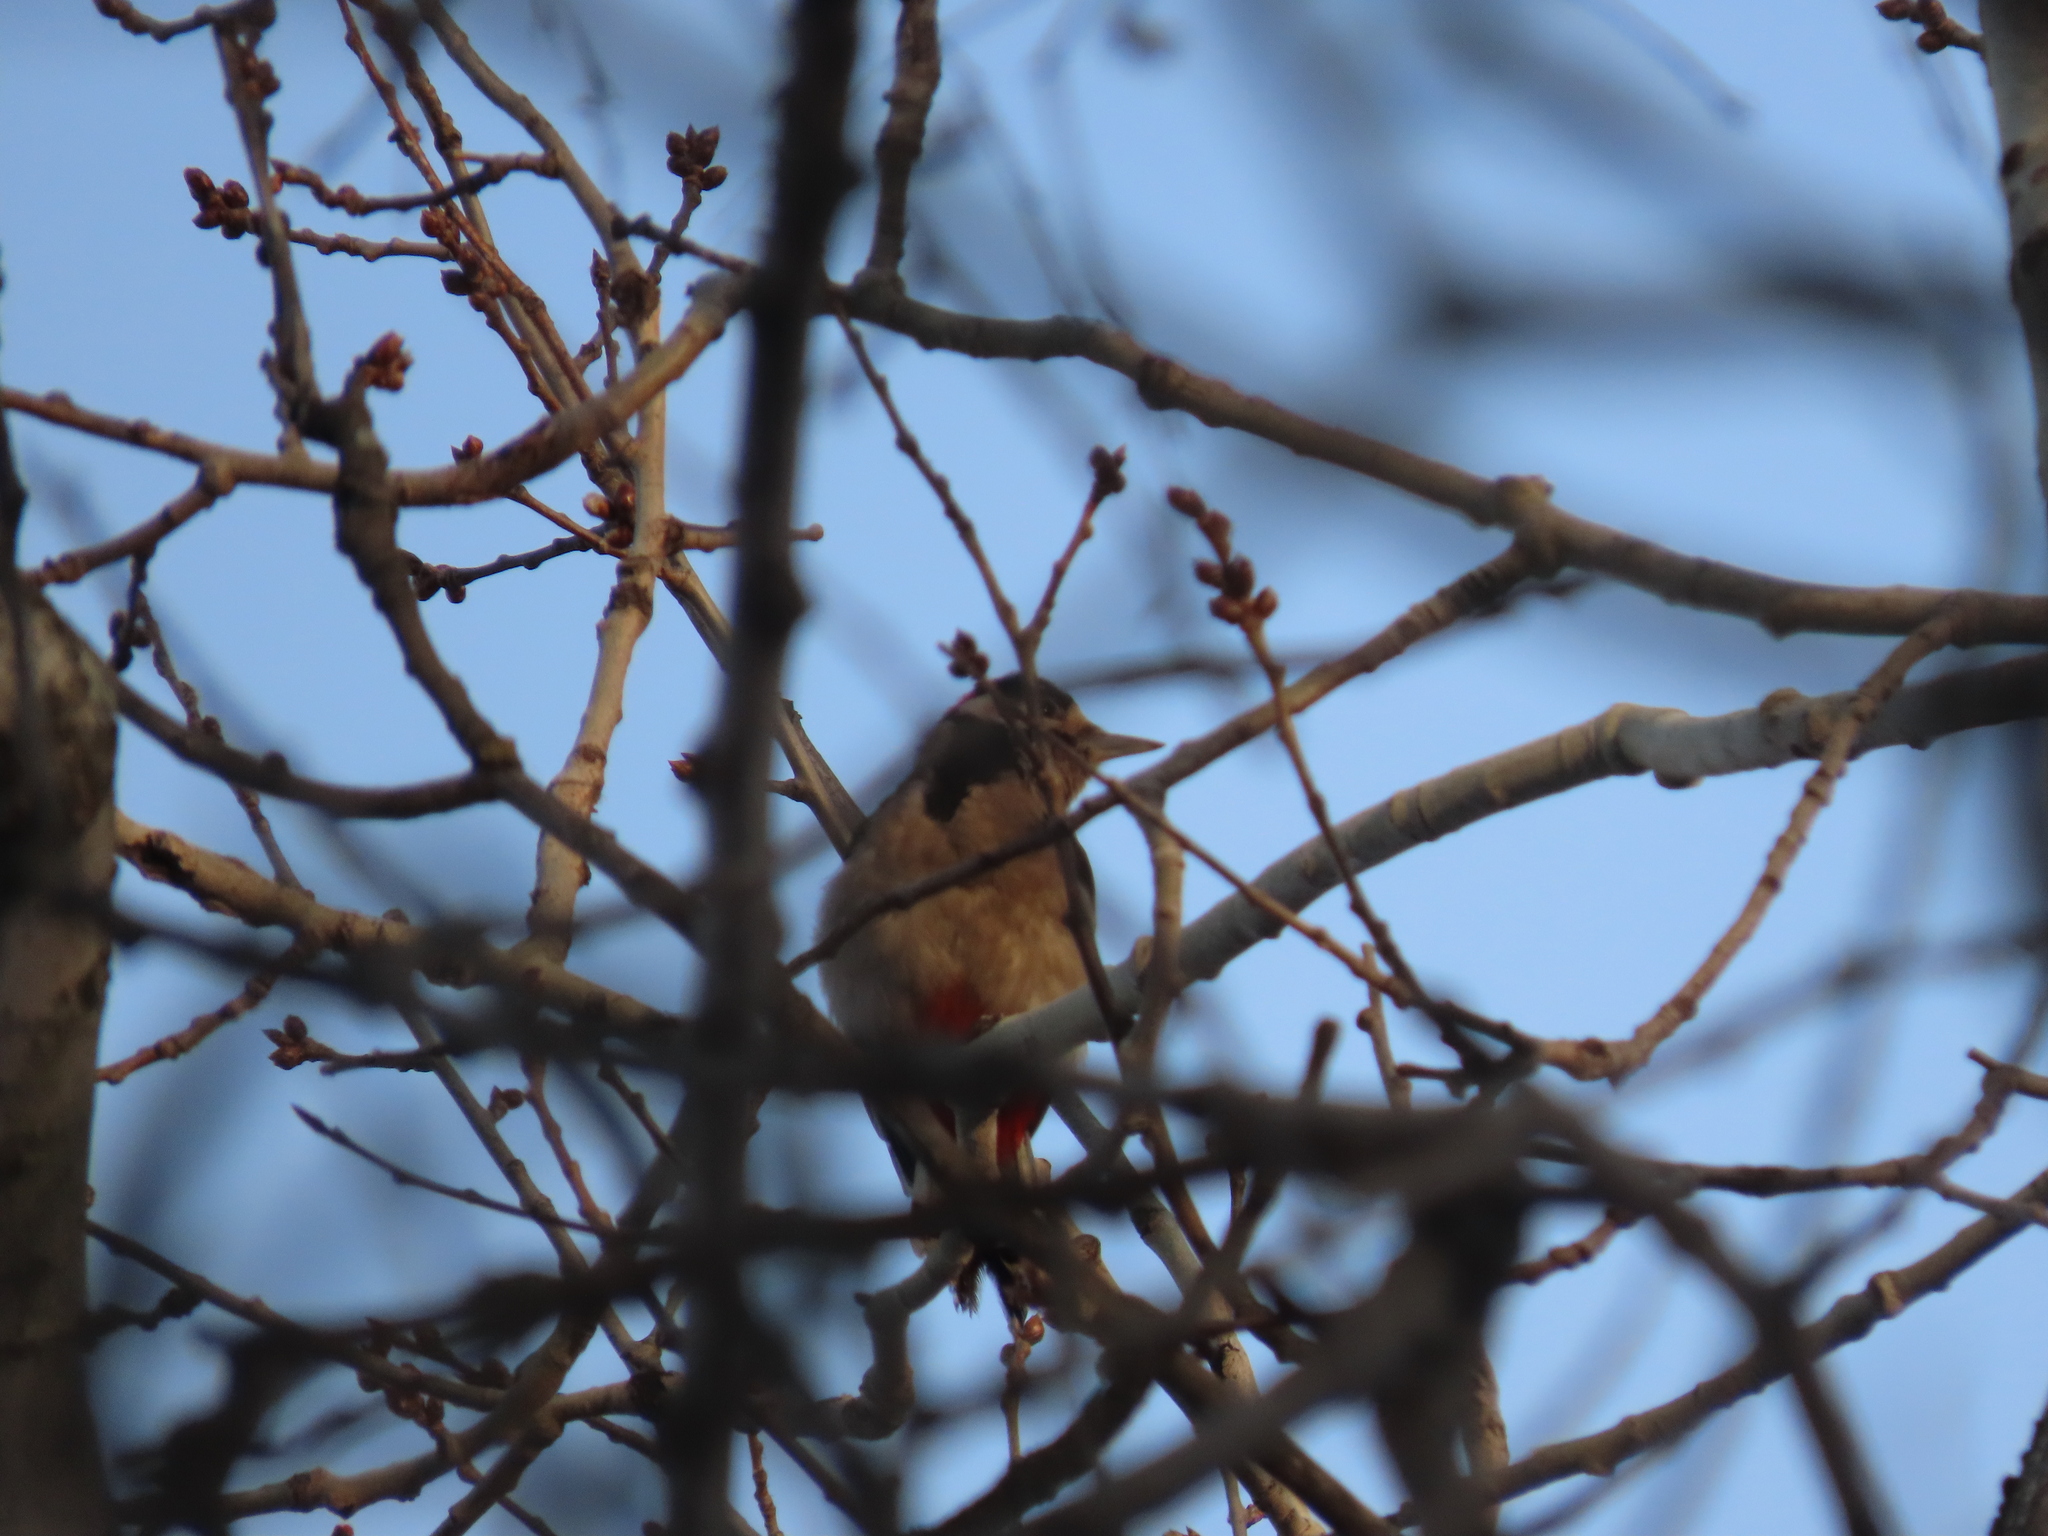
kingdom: Animalia
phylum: Chordata
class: Aves
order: Piciformes
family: Picidae
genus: Dendrocopos
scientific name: Dendrocopos major
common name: Great spotted woodpecker
